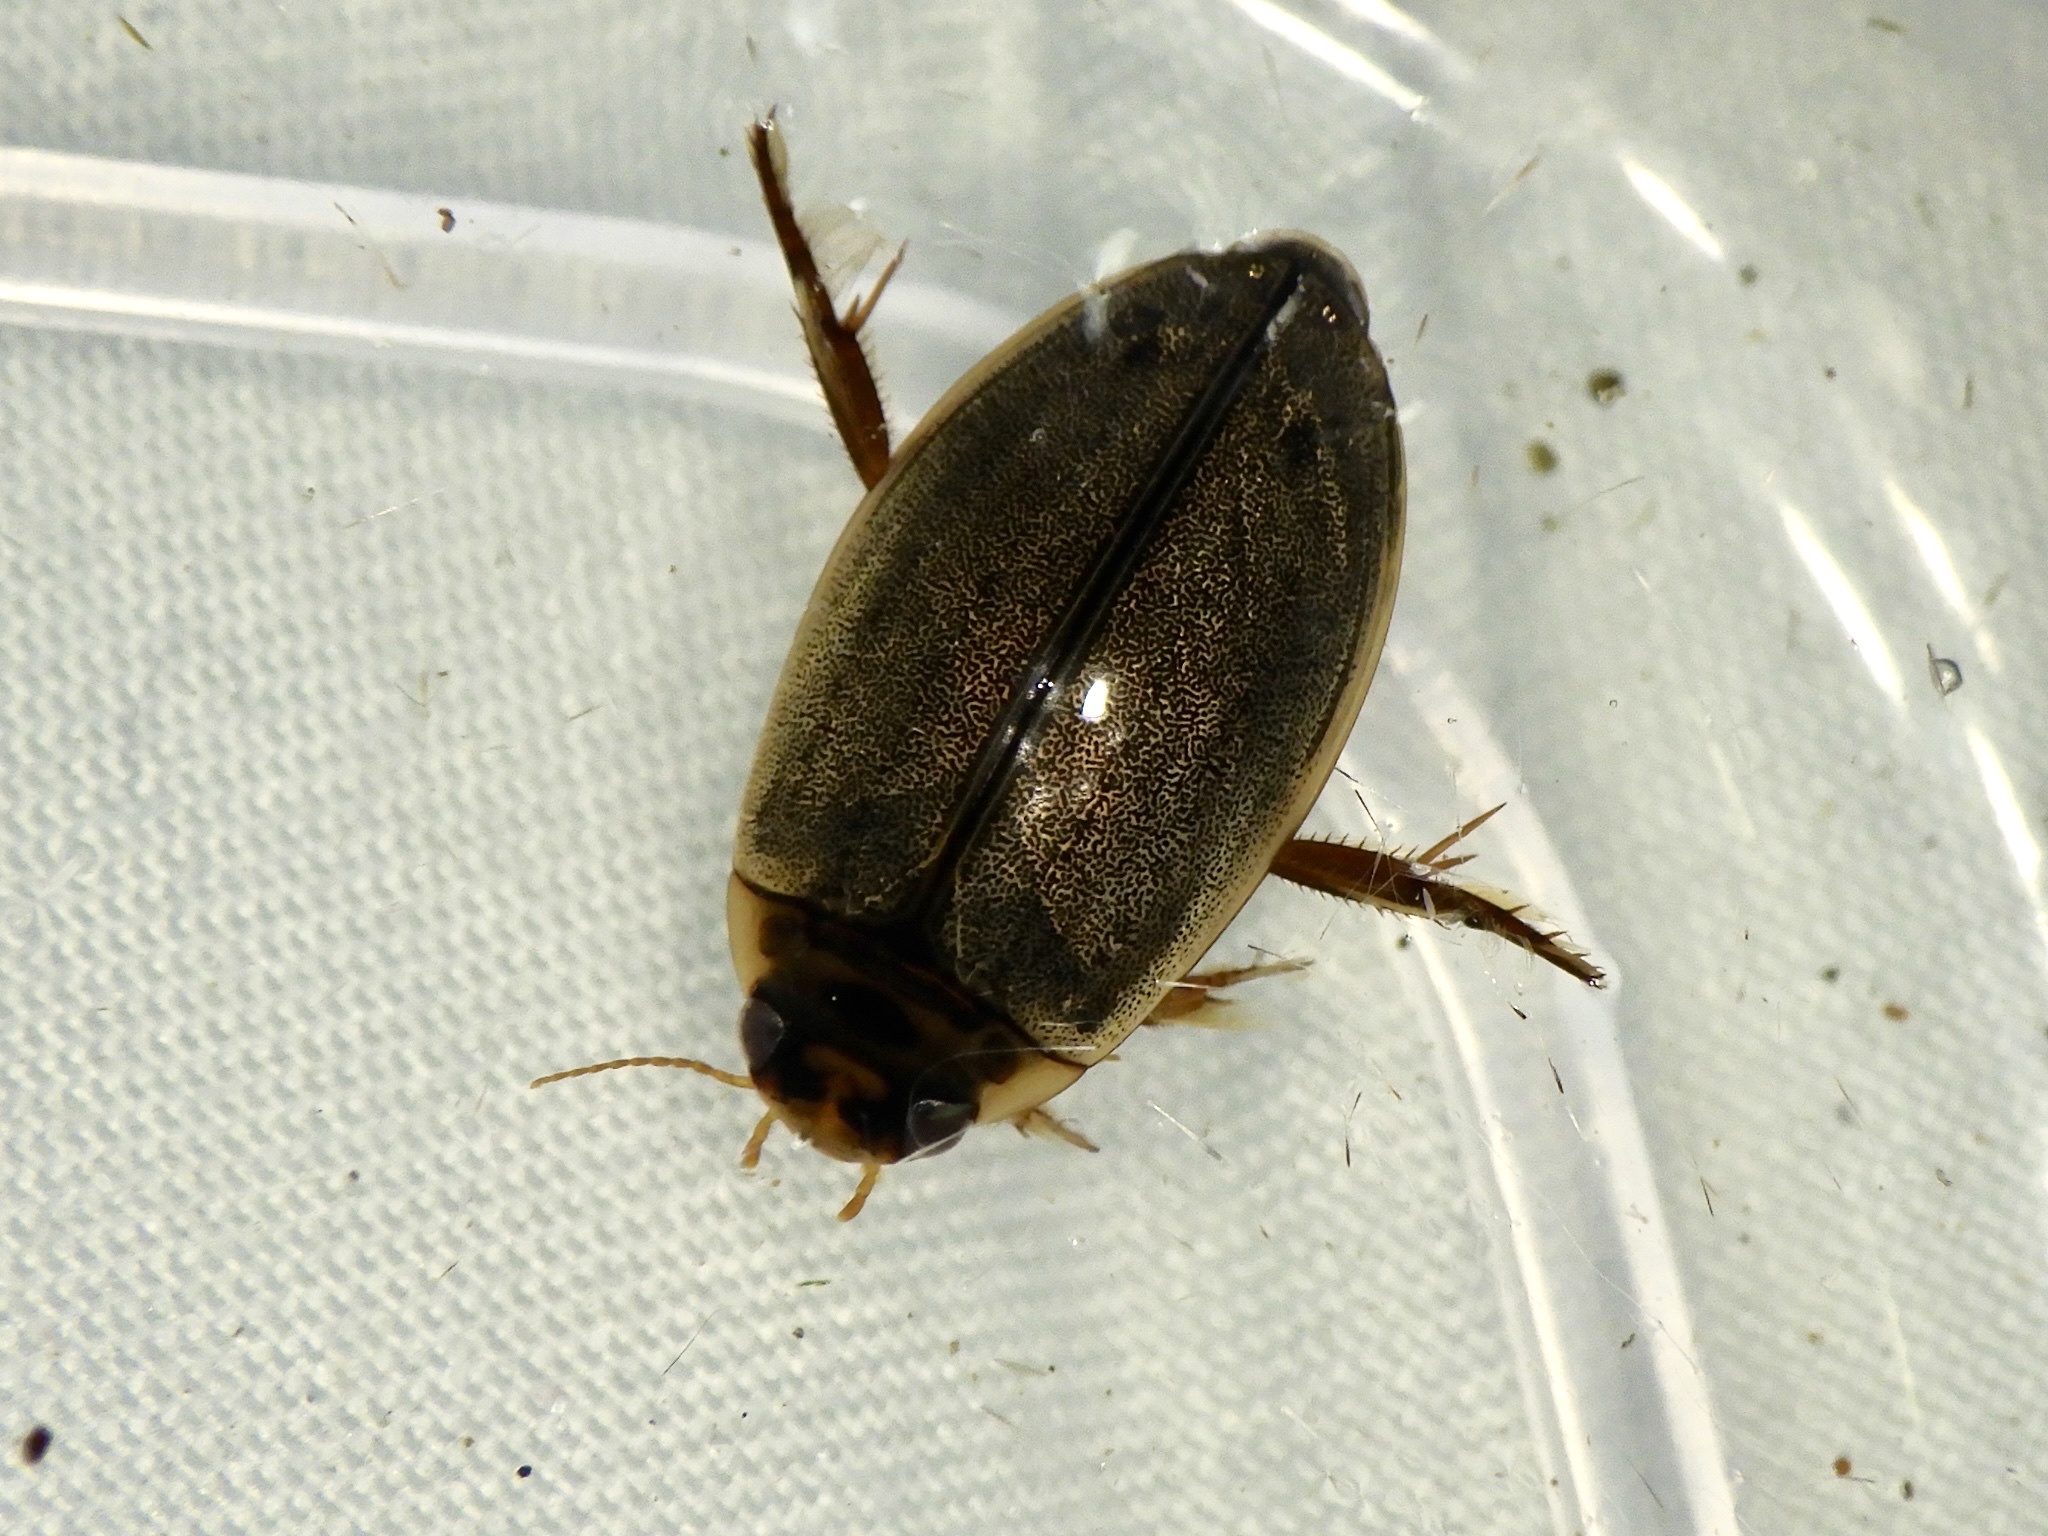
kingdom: Animalia
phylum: Arthropoda
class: Insecta
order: Coleoptera
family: Dytiscidae
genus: Rhantus
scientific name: Rhantus suturalis
